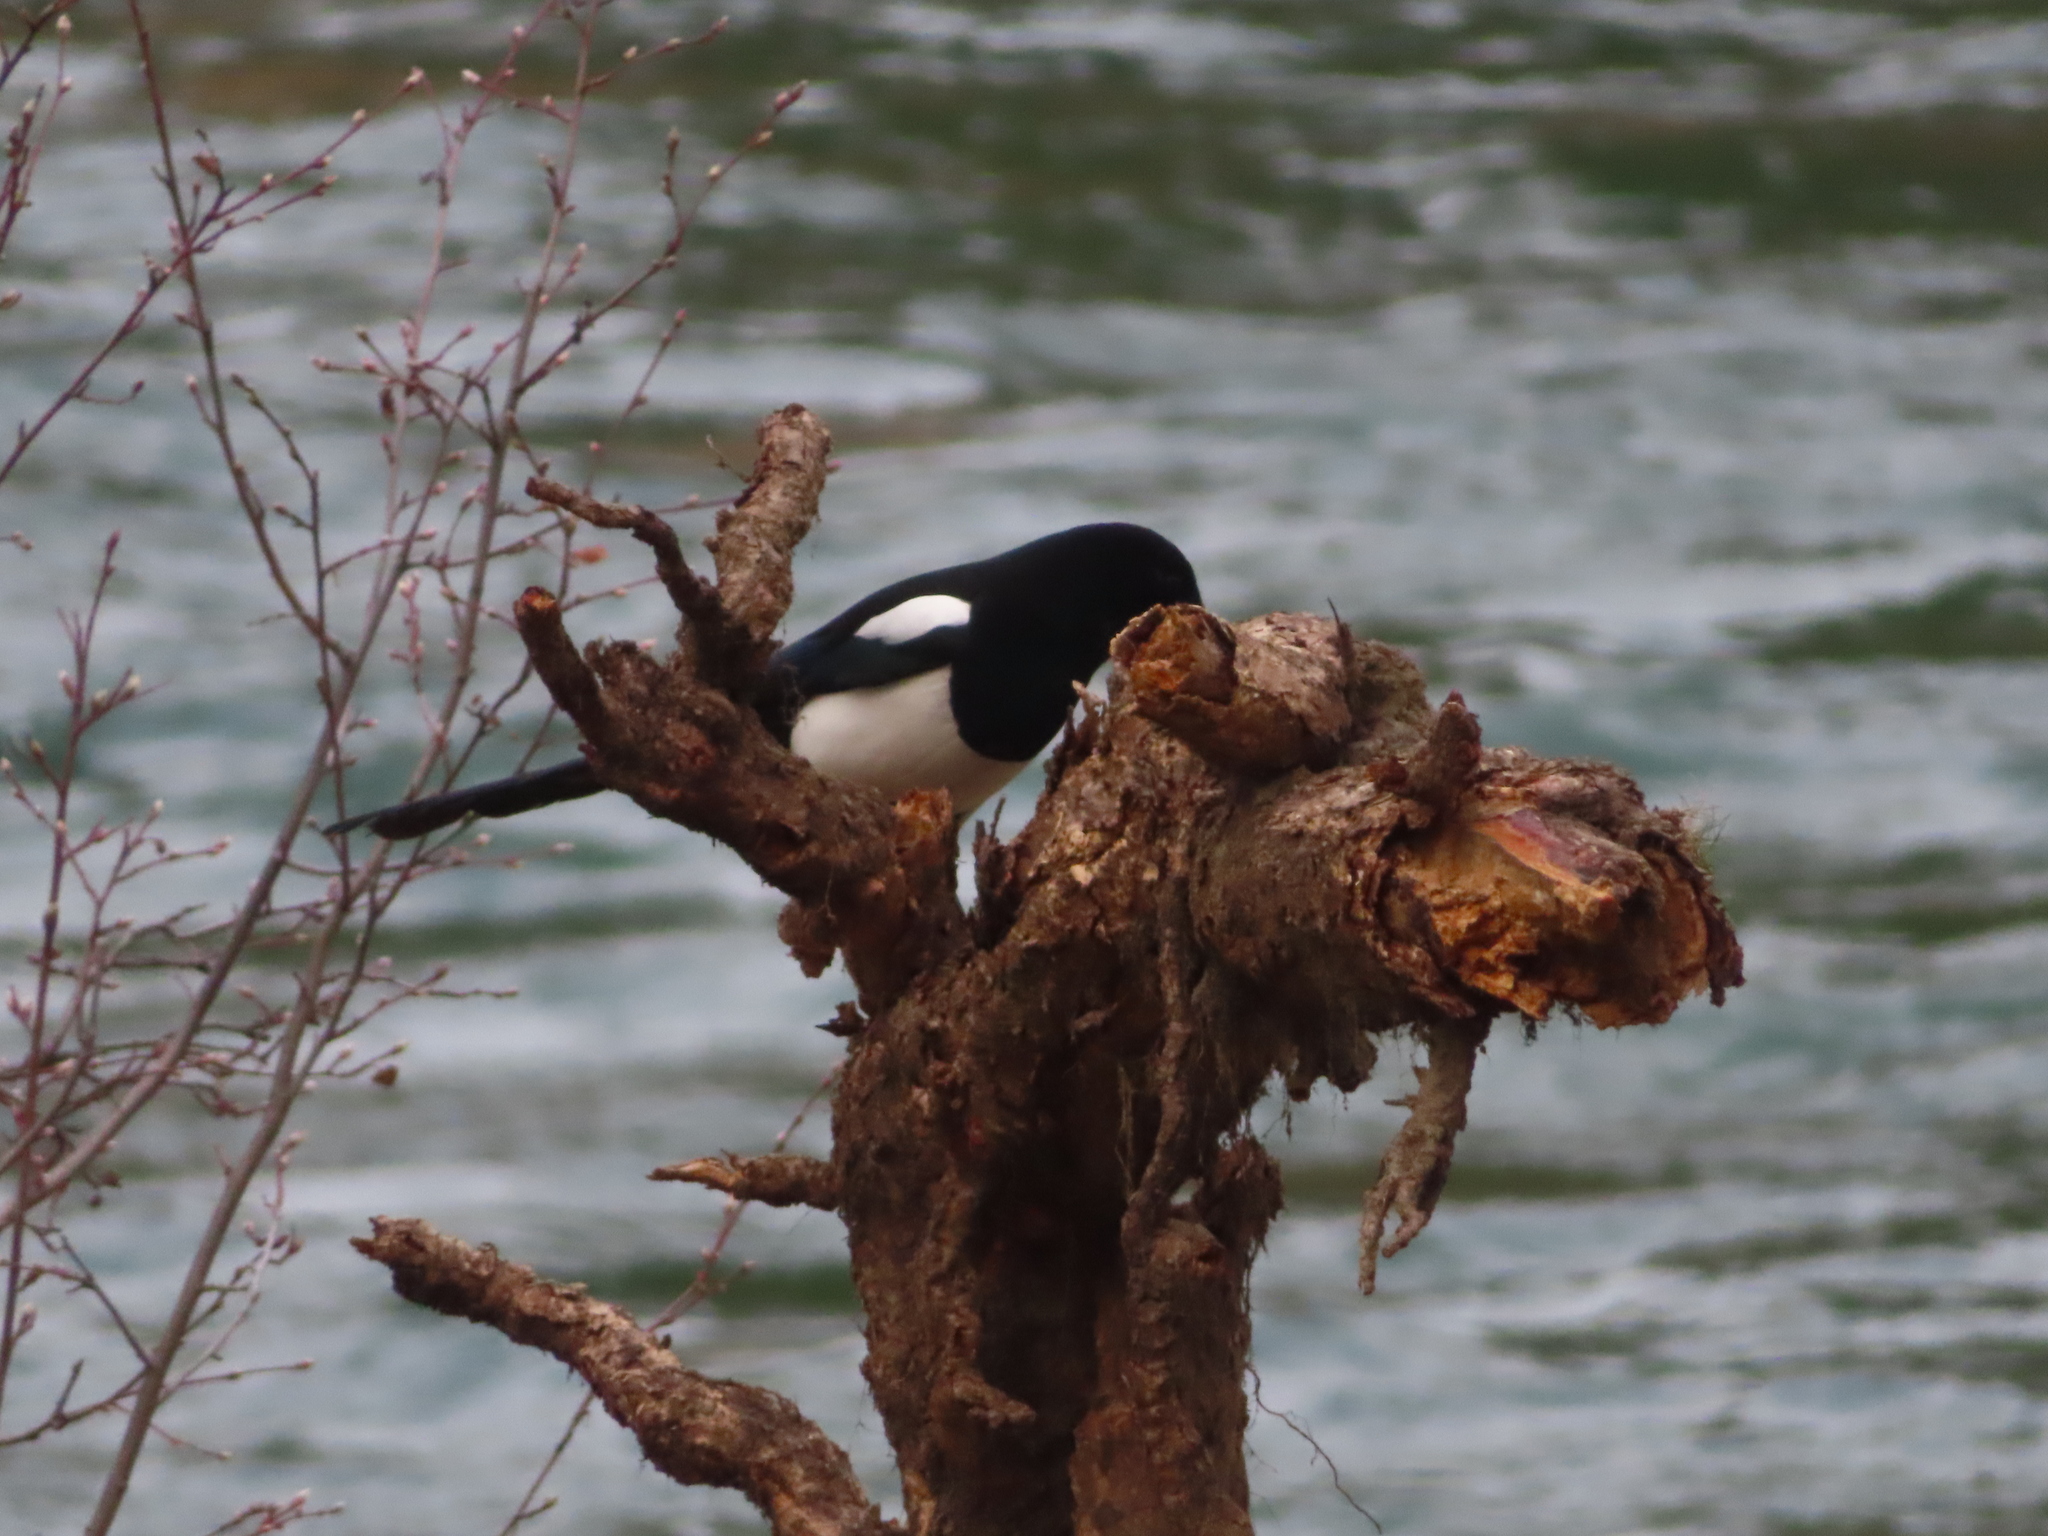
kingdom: Animalia
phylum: Chordata
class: Aves
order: Passeriformes
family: Corvidae
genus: Pica
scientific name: Pica hudsonia
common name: Black-billed magpie
